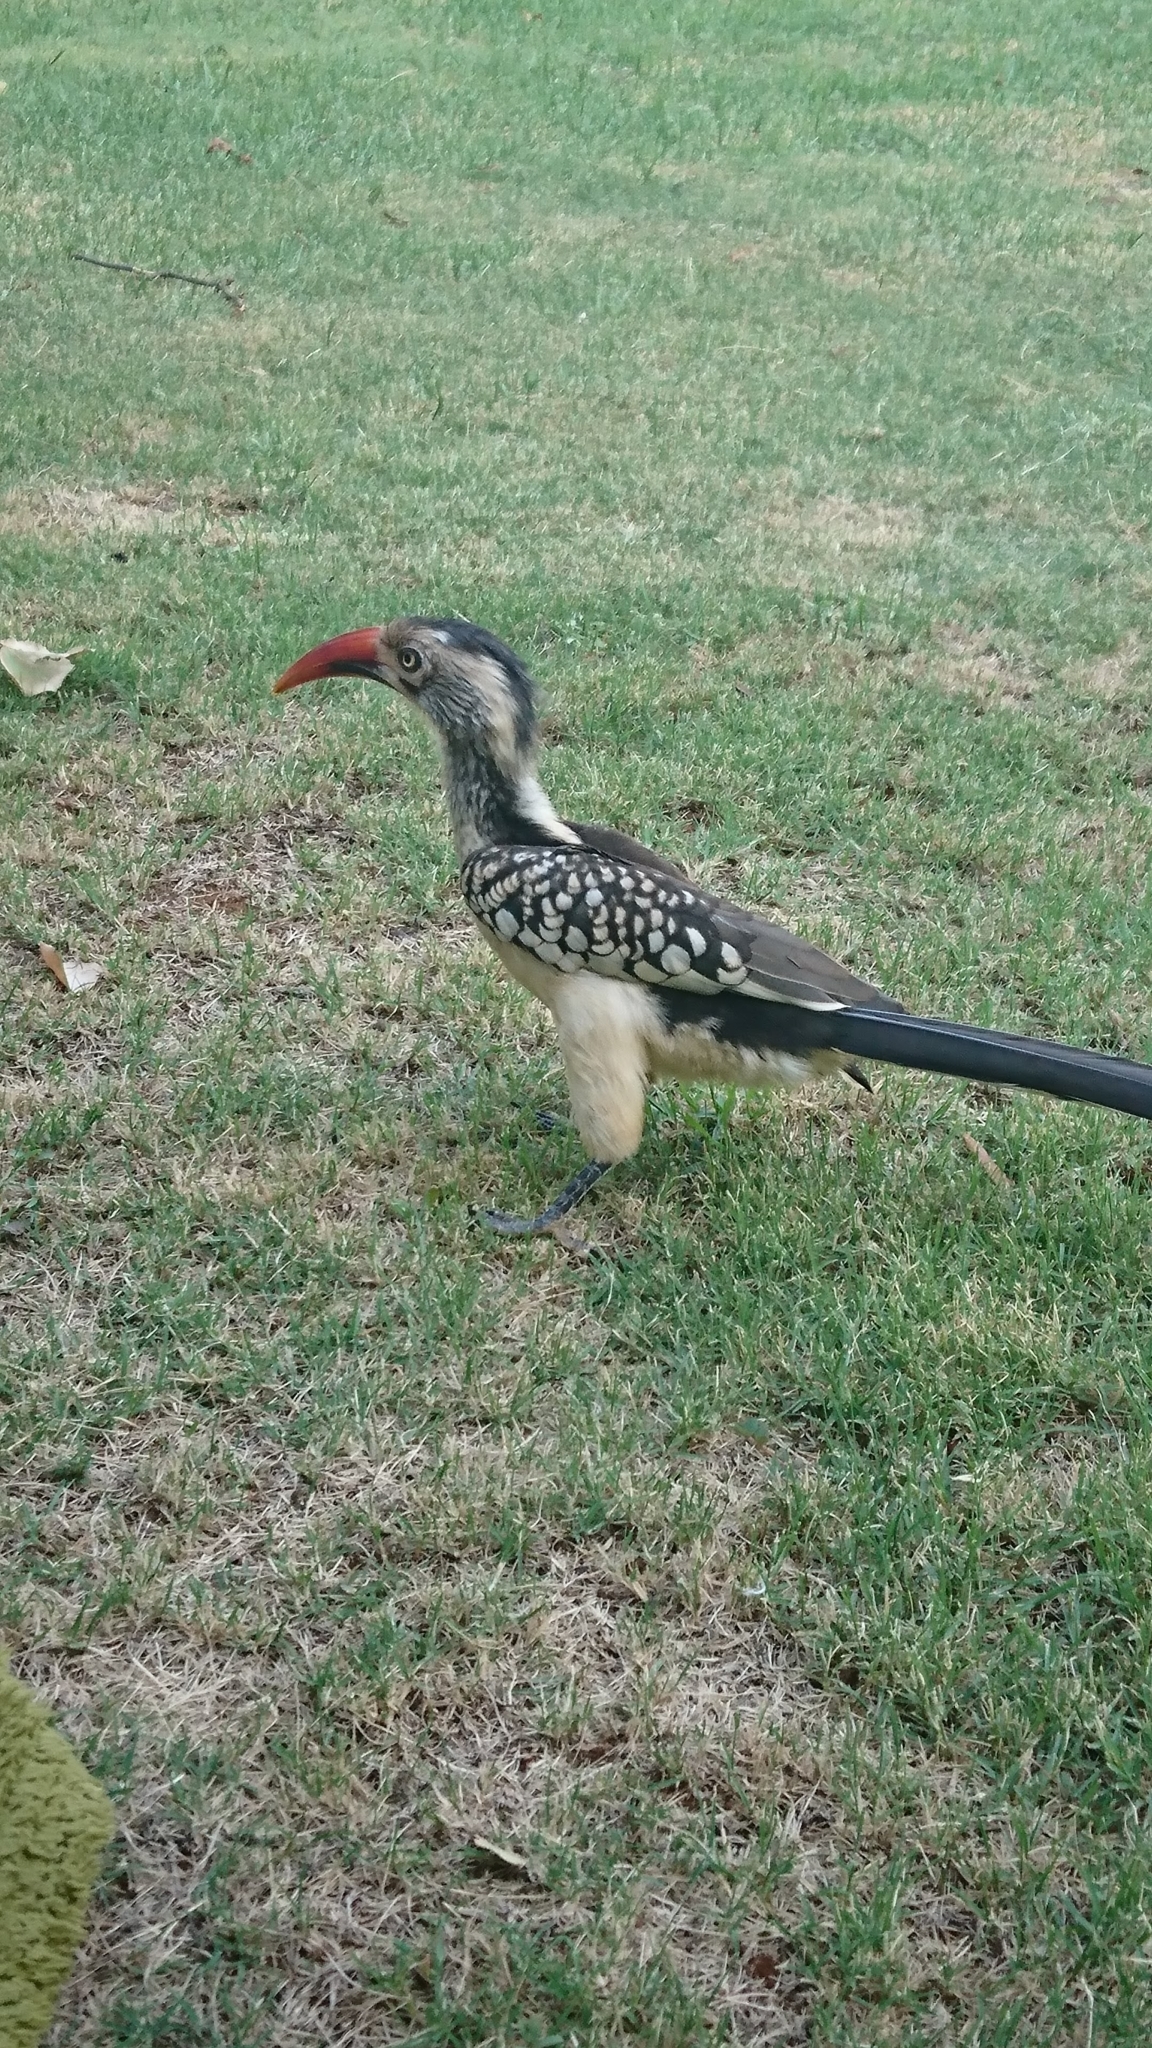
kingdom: Animalia
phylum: Chordata
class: Aves
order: Bucerotiformes
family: Bucerotidae
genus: Tockus
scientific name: Tockus rufirostris
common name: Southern red-billed hornbill
